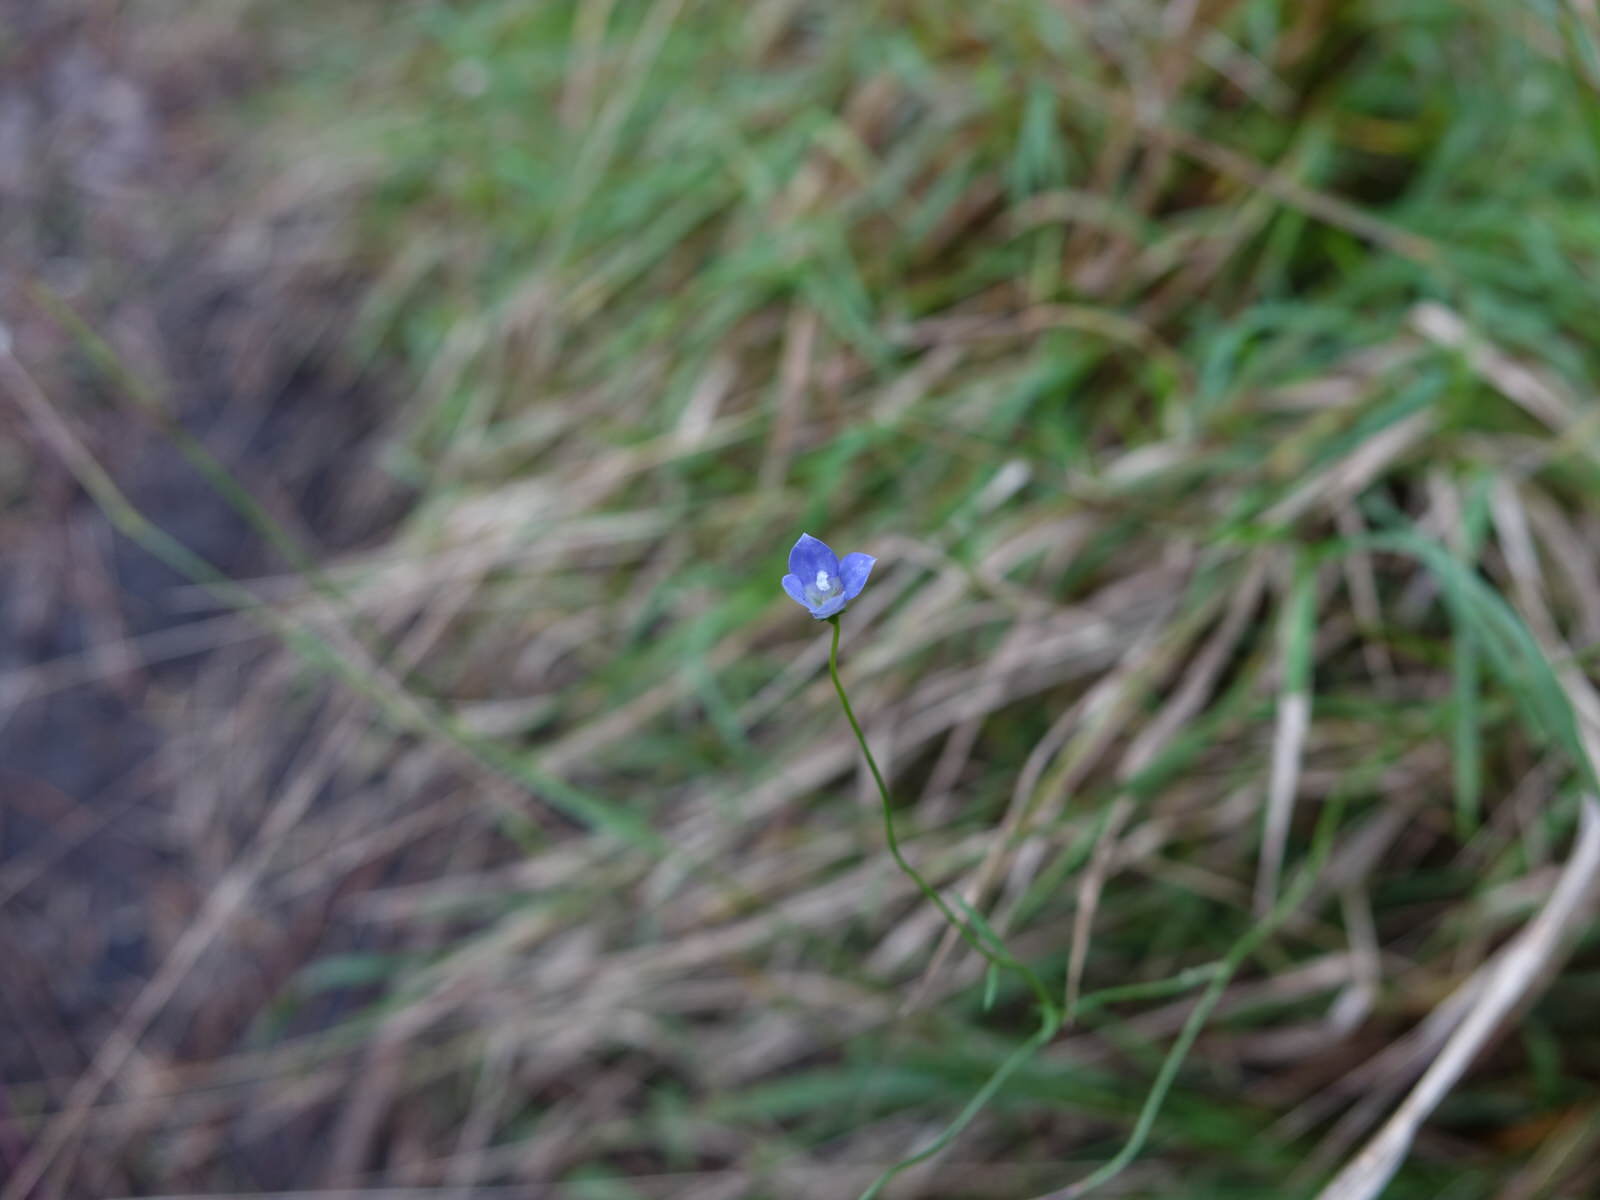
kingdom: Plantae
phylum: Tracheophyta
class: Magnoliopsida
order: Asterales
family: Campanulaceae
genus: Wahlenbergia
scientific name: Wahlenbergia violacea
